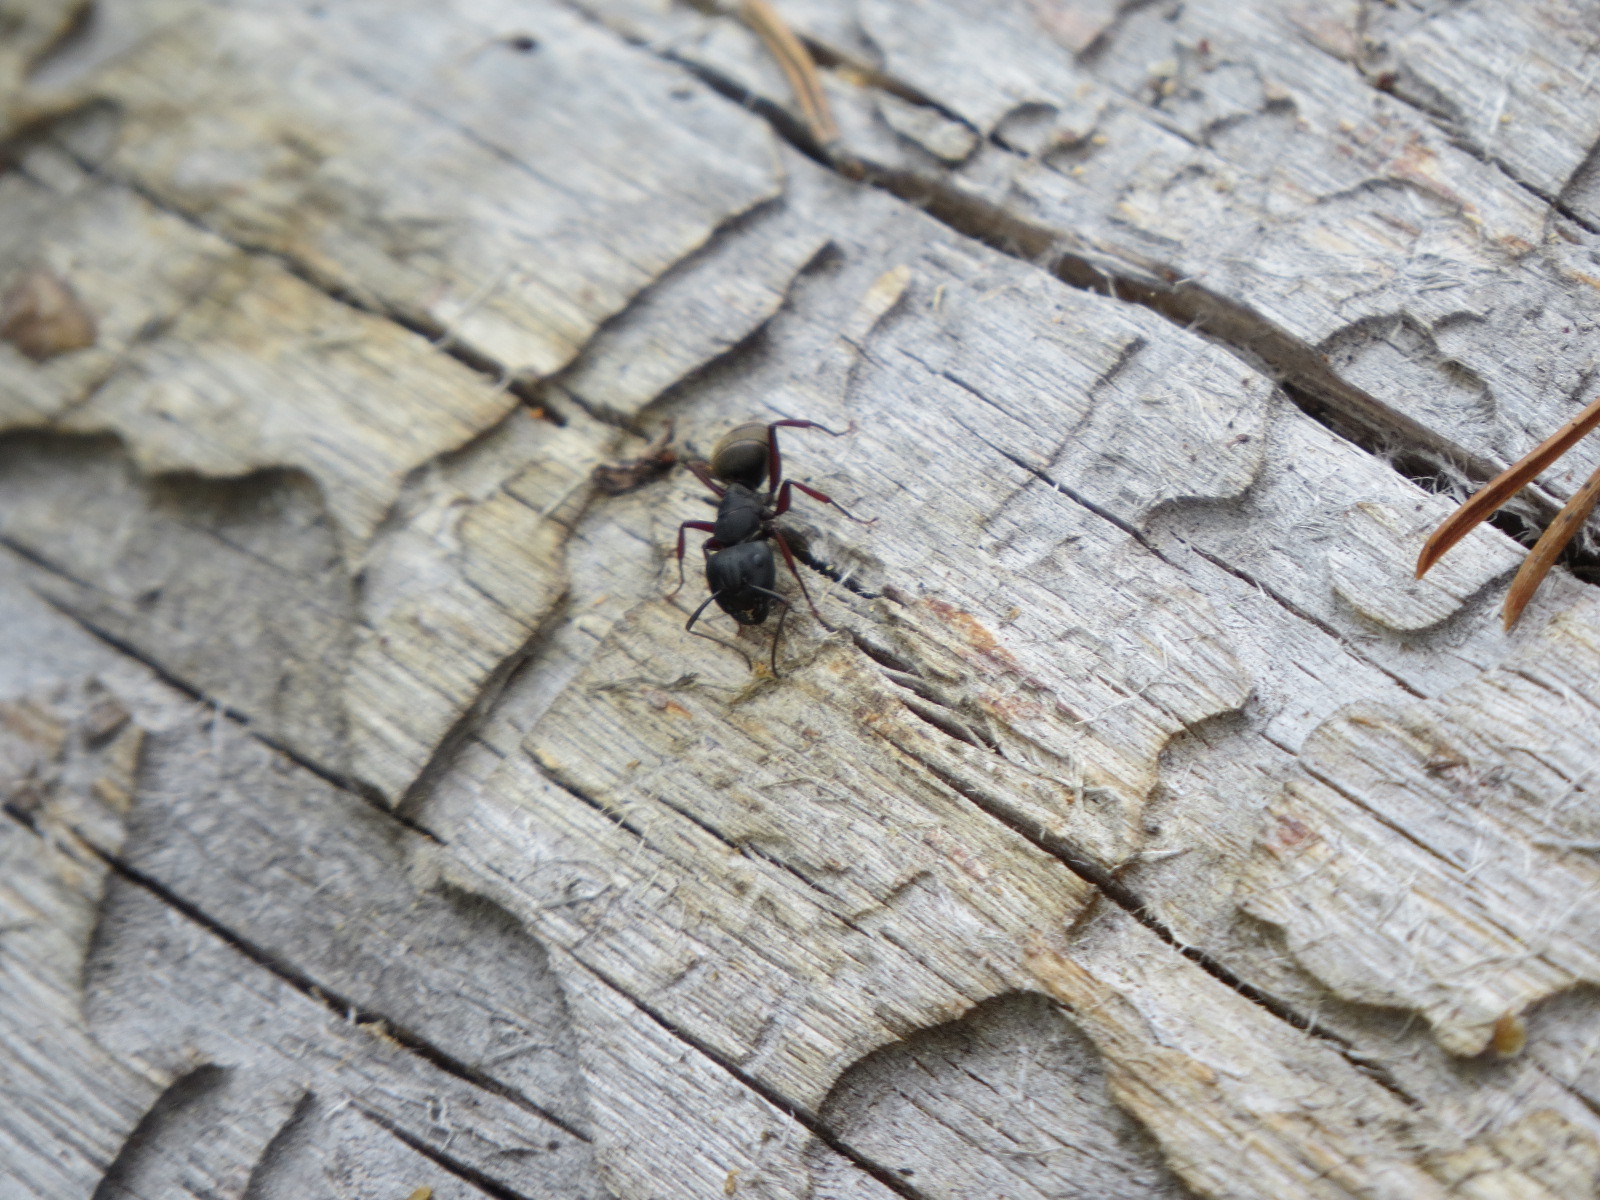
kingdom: Animalia
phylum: Arthropoda
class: Insecta
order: Hymenoptera
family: Formicidae
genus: Camponotus
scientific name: Camponotus modoc
